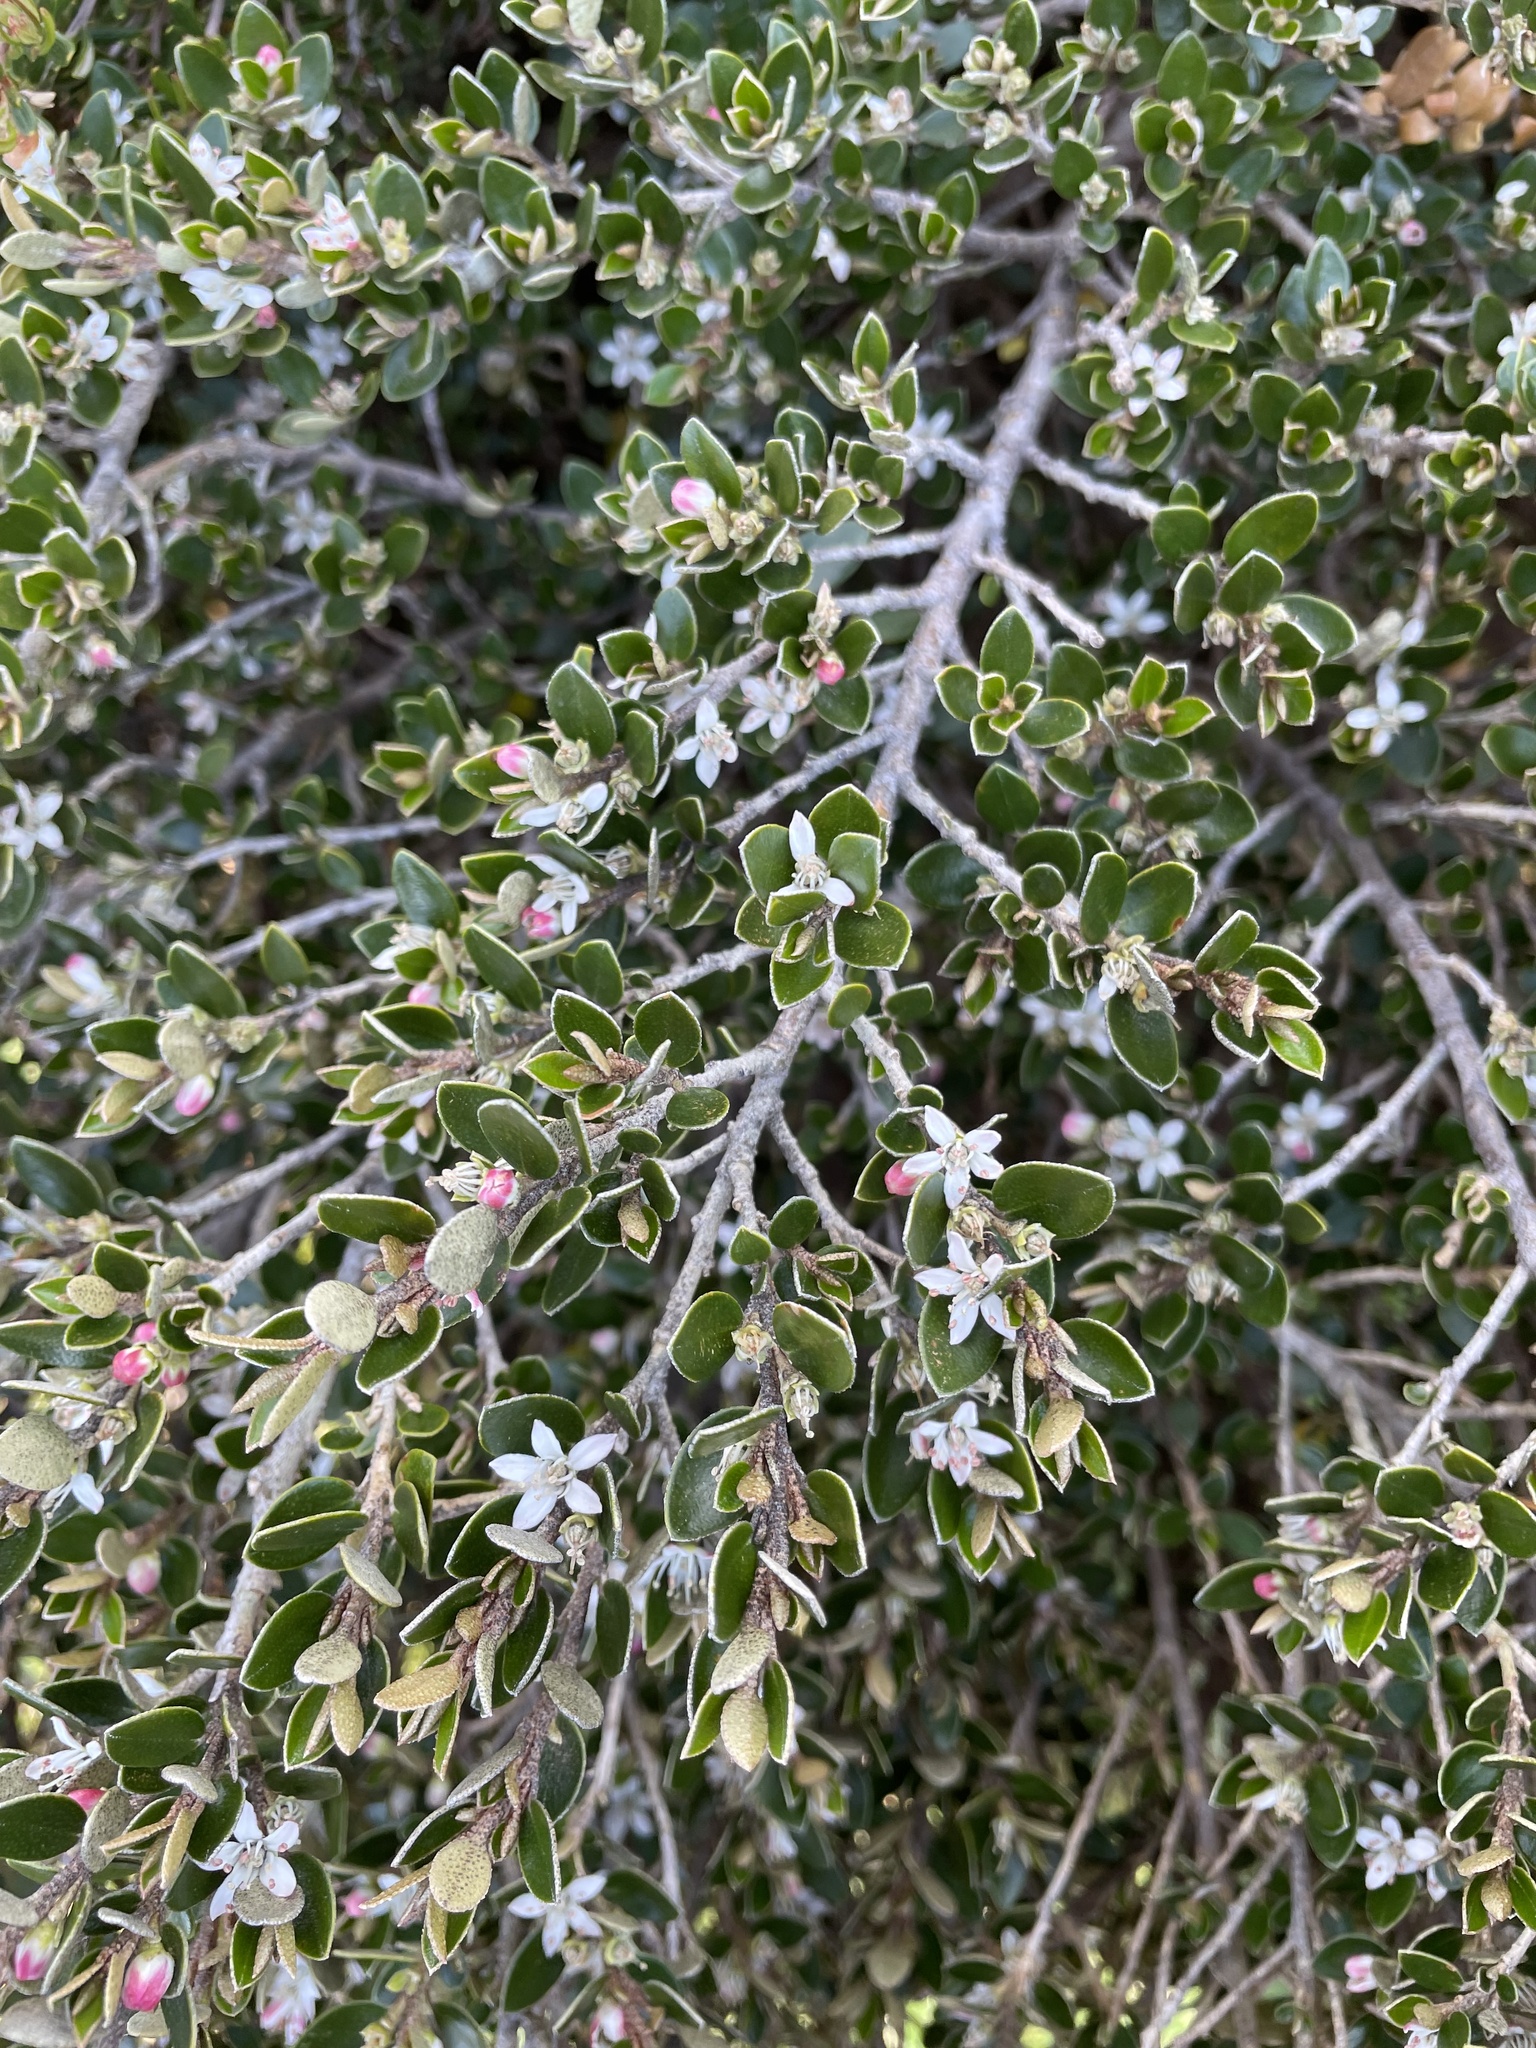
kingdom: Plantae
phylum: Tracheophyta
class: Magnoliopsida
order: Sapindales
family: Rutaceae
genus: Nematolepis
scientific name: Nematolepis ovatifolia
